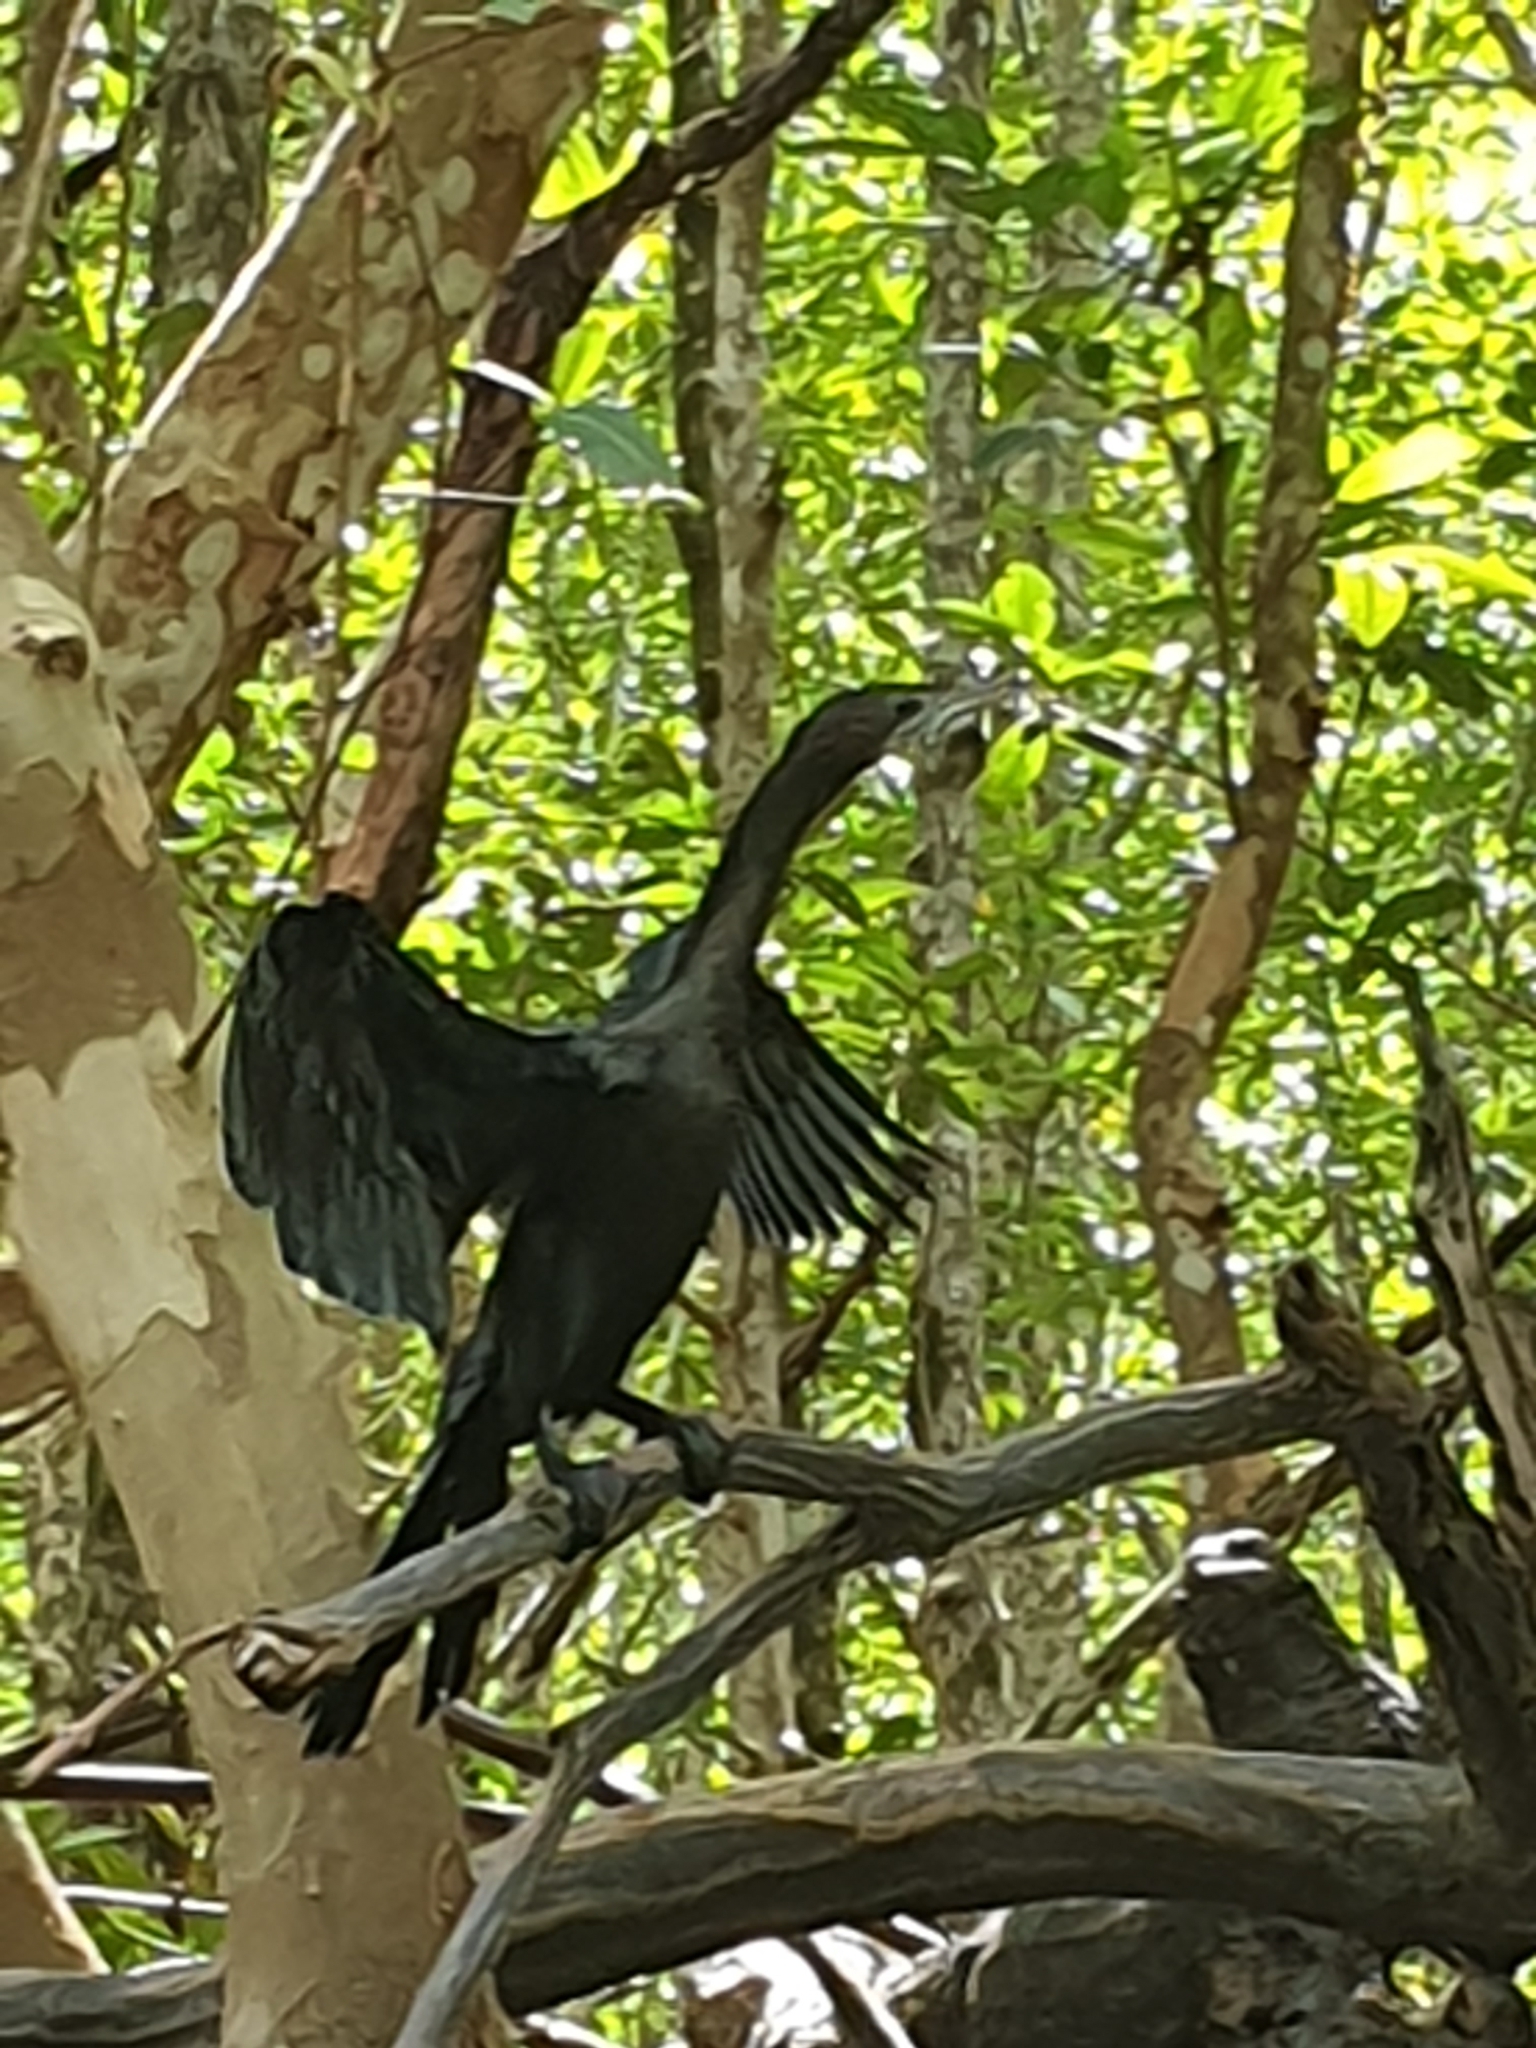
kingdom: Animalia
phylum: Chordata
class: Aves
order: Suliformes
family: Phalacrocoracidae
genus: Microcarbo
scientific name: Microcarbo niger
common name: Little cormorant
